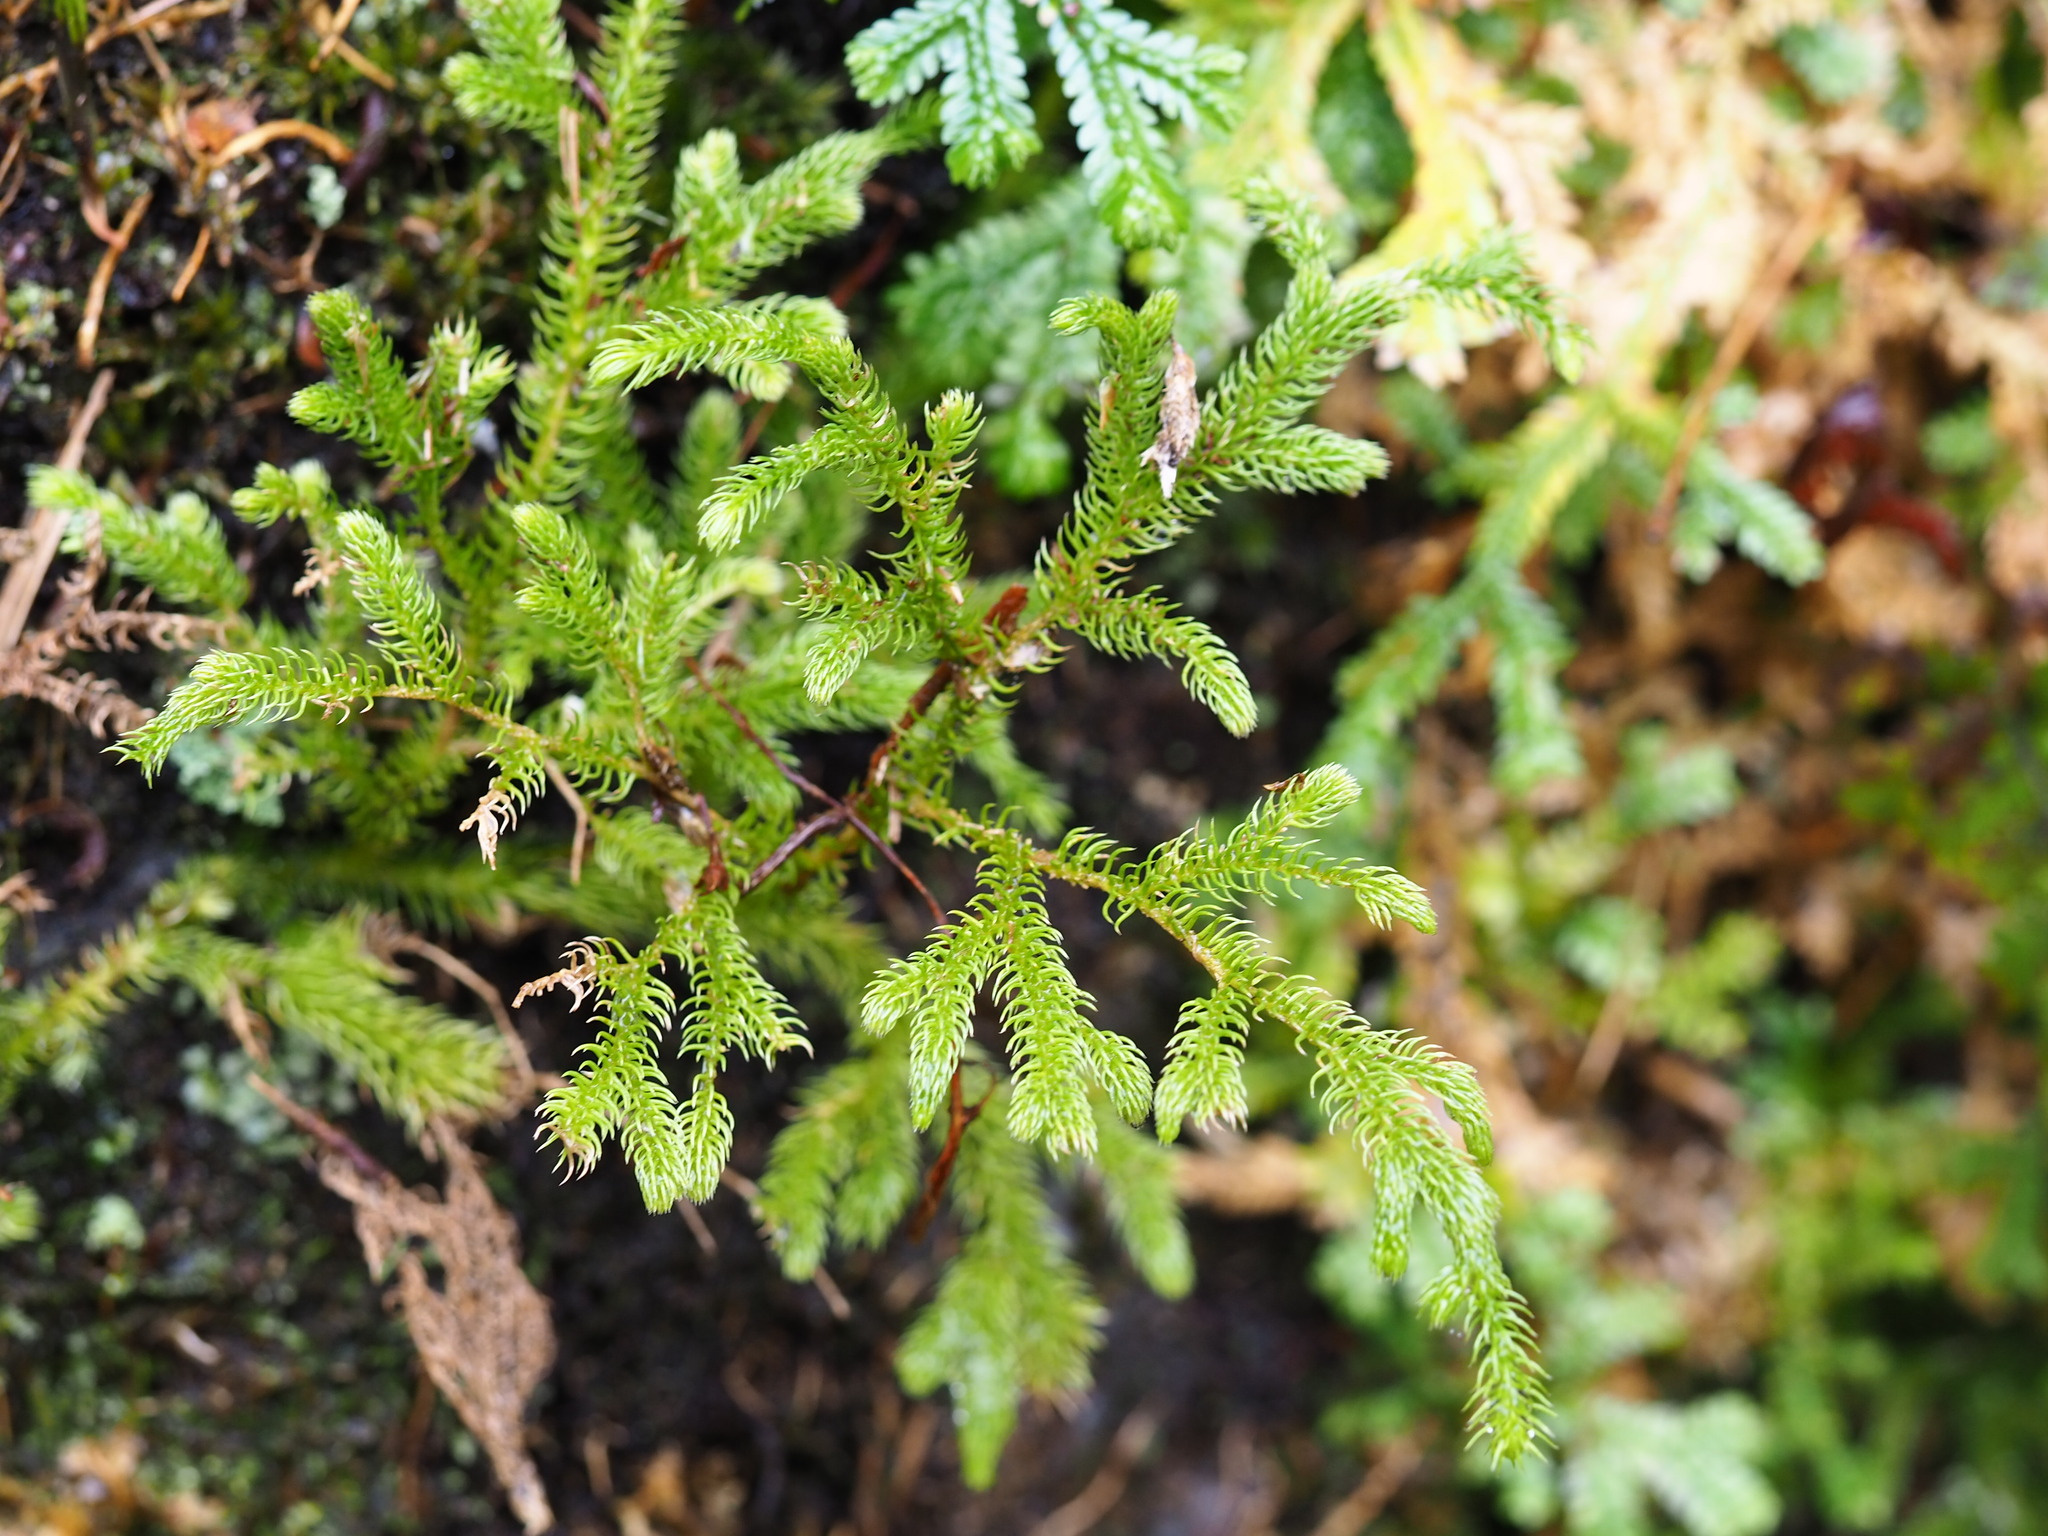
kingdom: Plantae
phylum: Tracheophyta
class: Lycopodiopsida
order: Lycopodiales
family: Lycopodiaceae
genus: Palhinhaea
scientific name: Palhinhaea cernua
